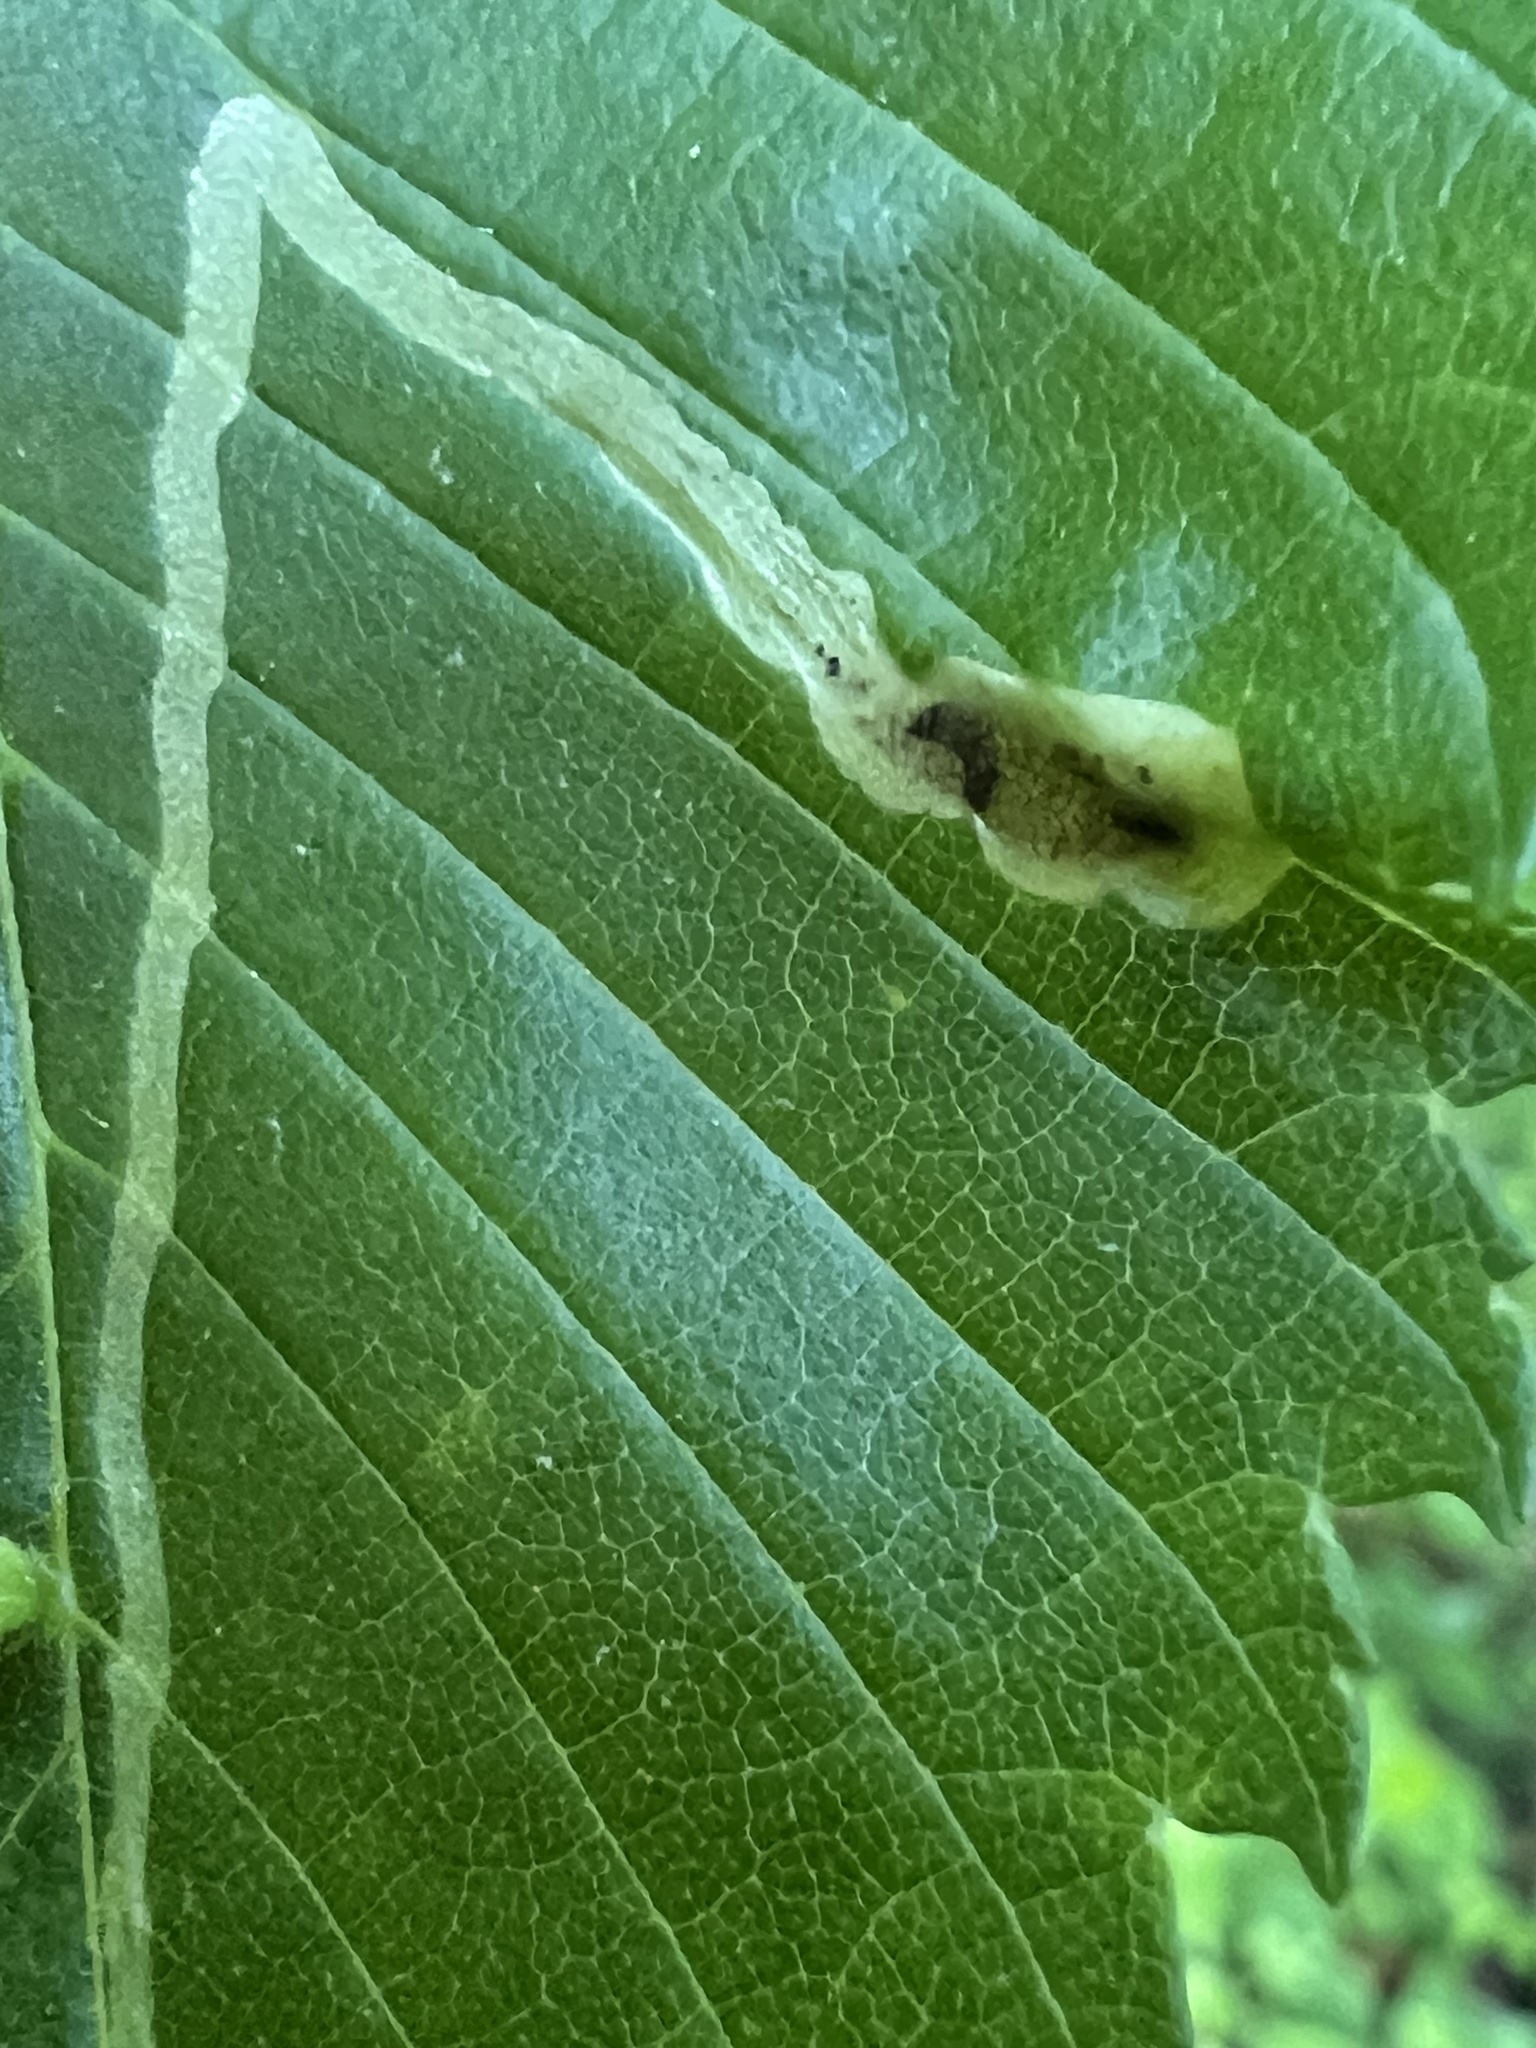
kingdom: Animalia
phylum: Arthropoda
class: Insecta
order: Diptera
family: Agromyzidae
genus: Agromyza
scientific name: Agromyza aristata
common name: Elm agromyzid leafminer
